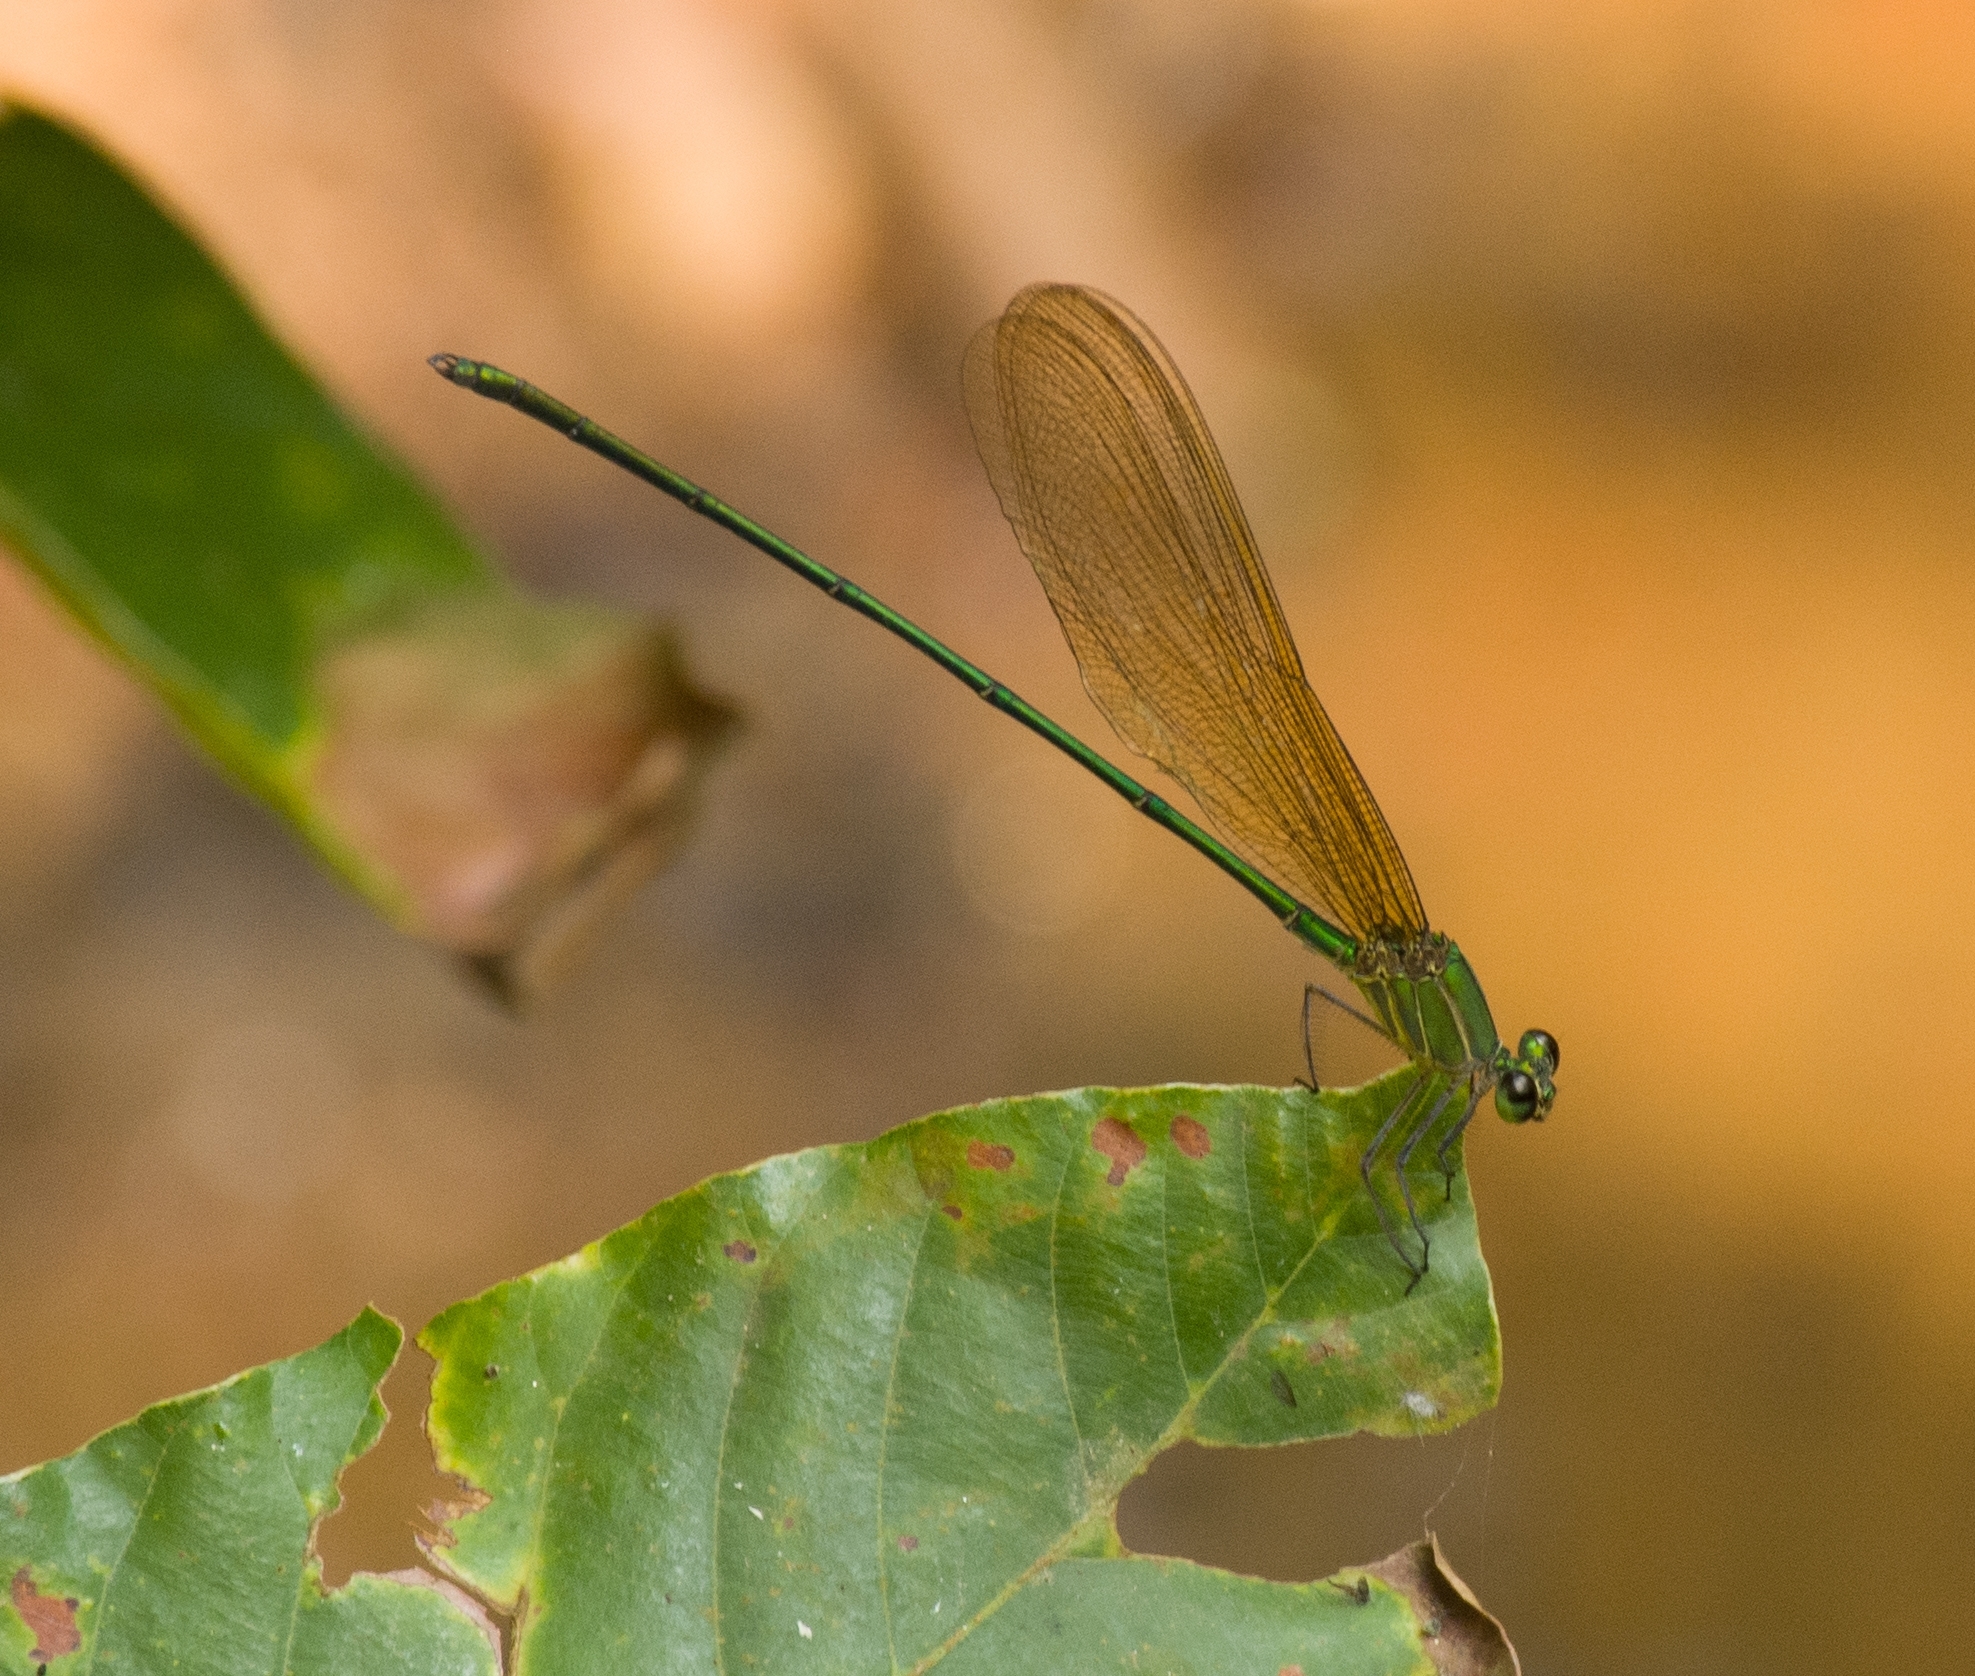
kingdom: Animalia
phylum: Arthropoda
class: Insecta
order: Odonata
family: Calopterygidae
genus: Vestalis
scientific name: Vestalis gracilis
